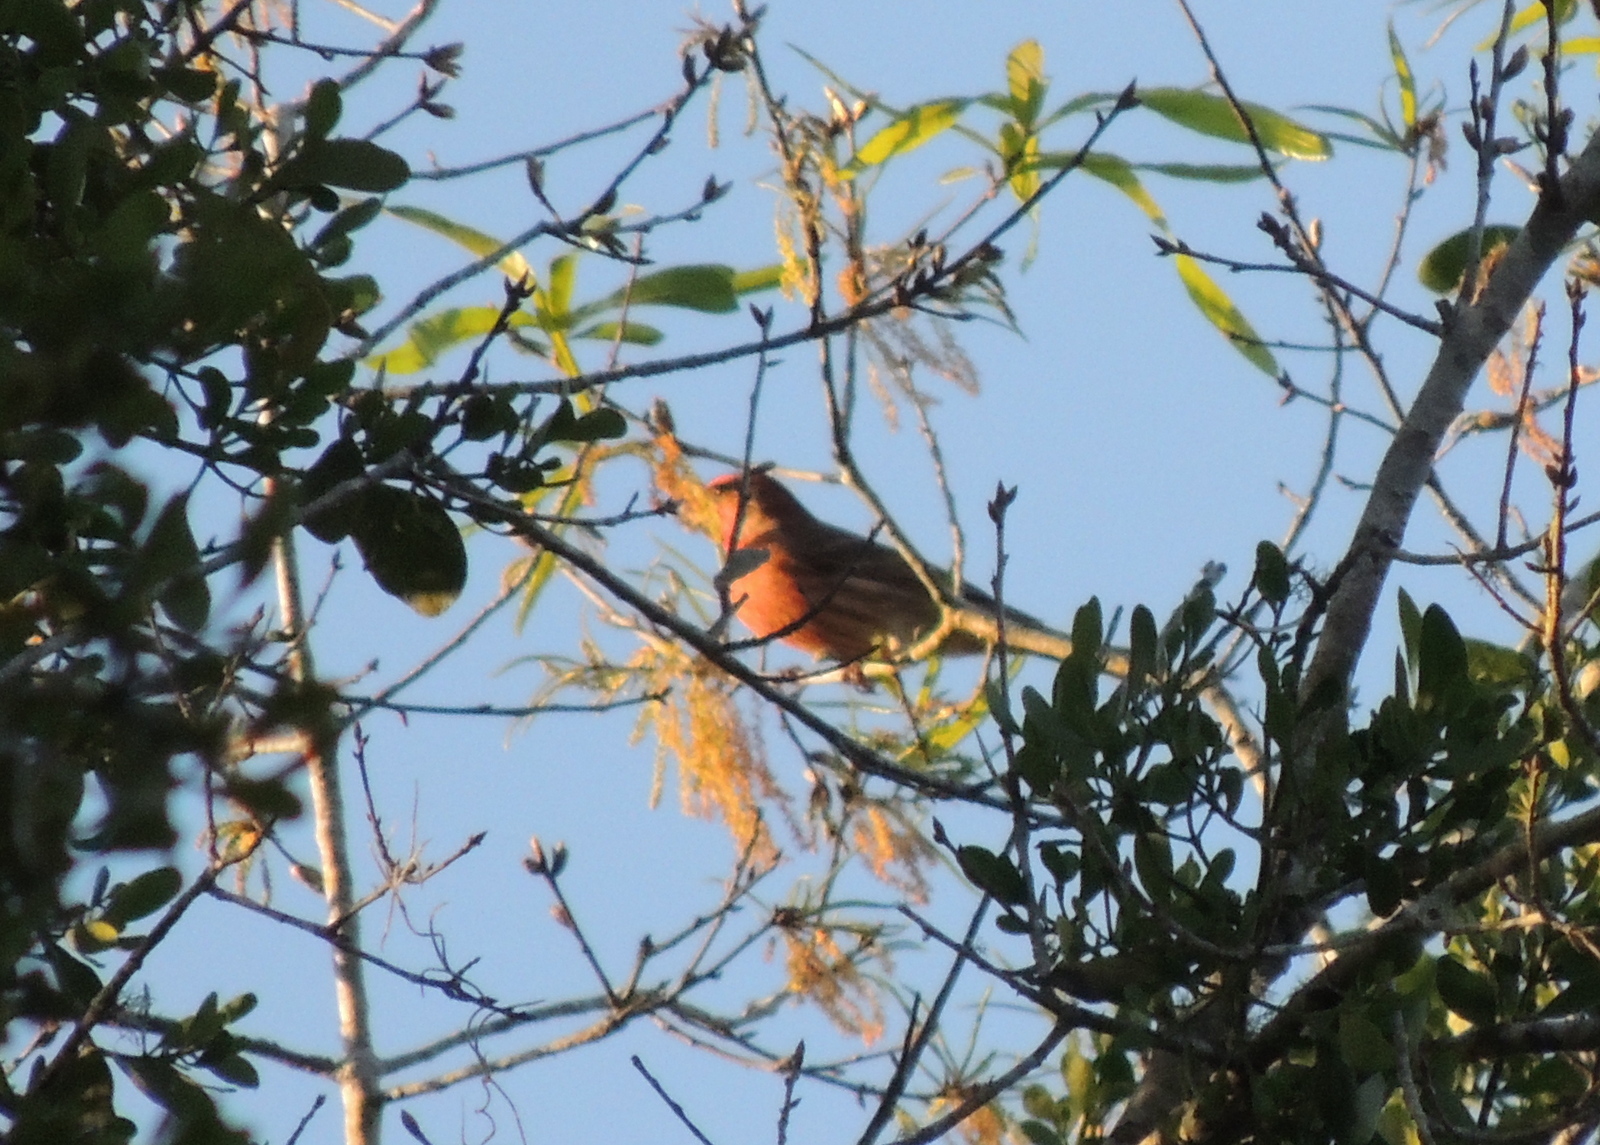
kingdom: Animalia
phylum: Chordata
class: Aves
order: Passeriformes
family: Fringillidae
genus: Haemorhous
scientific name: Haemorhous mexicanus
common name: House finch
